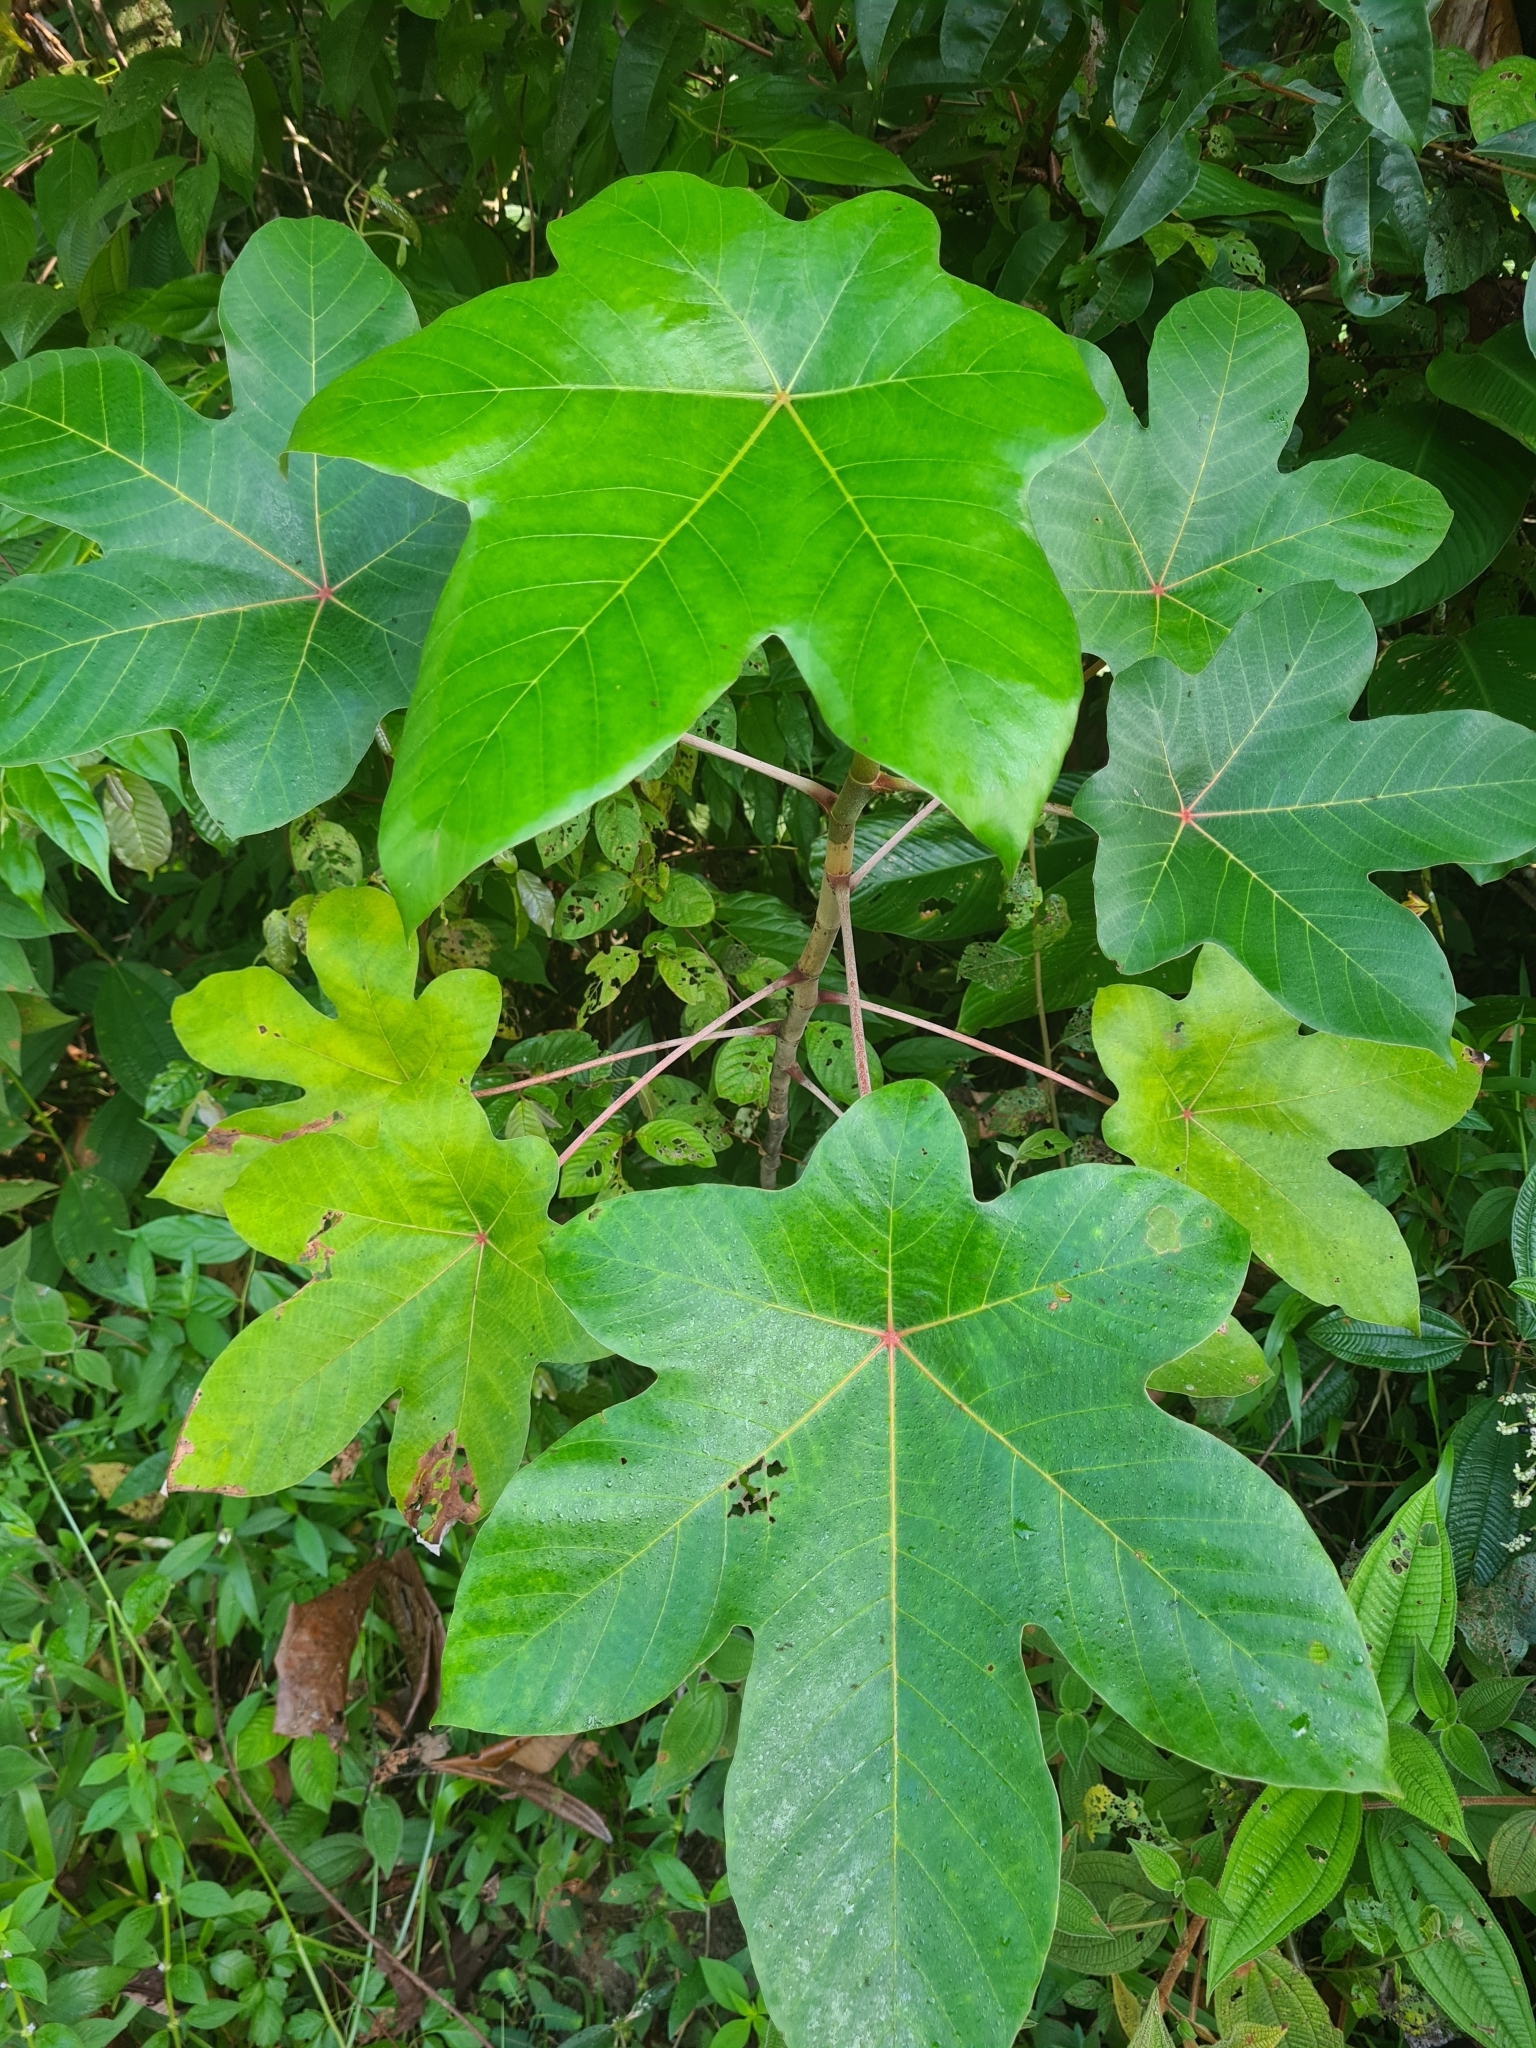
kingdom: Plantae
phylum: Tracheophyta
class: Magnoliopsida
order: Rosales
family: Urticaceae
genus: Cecropia
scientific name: Cecropia obtusa
